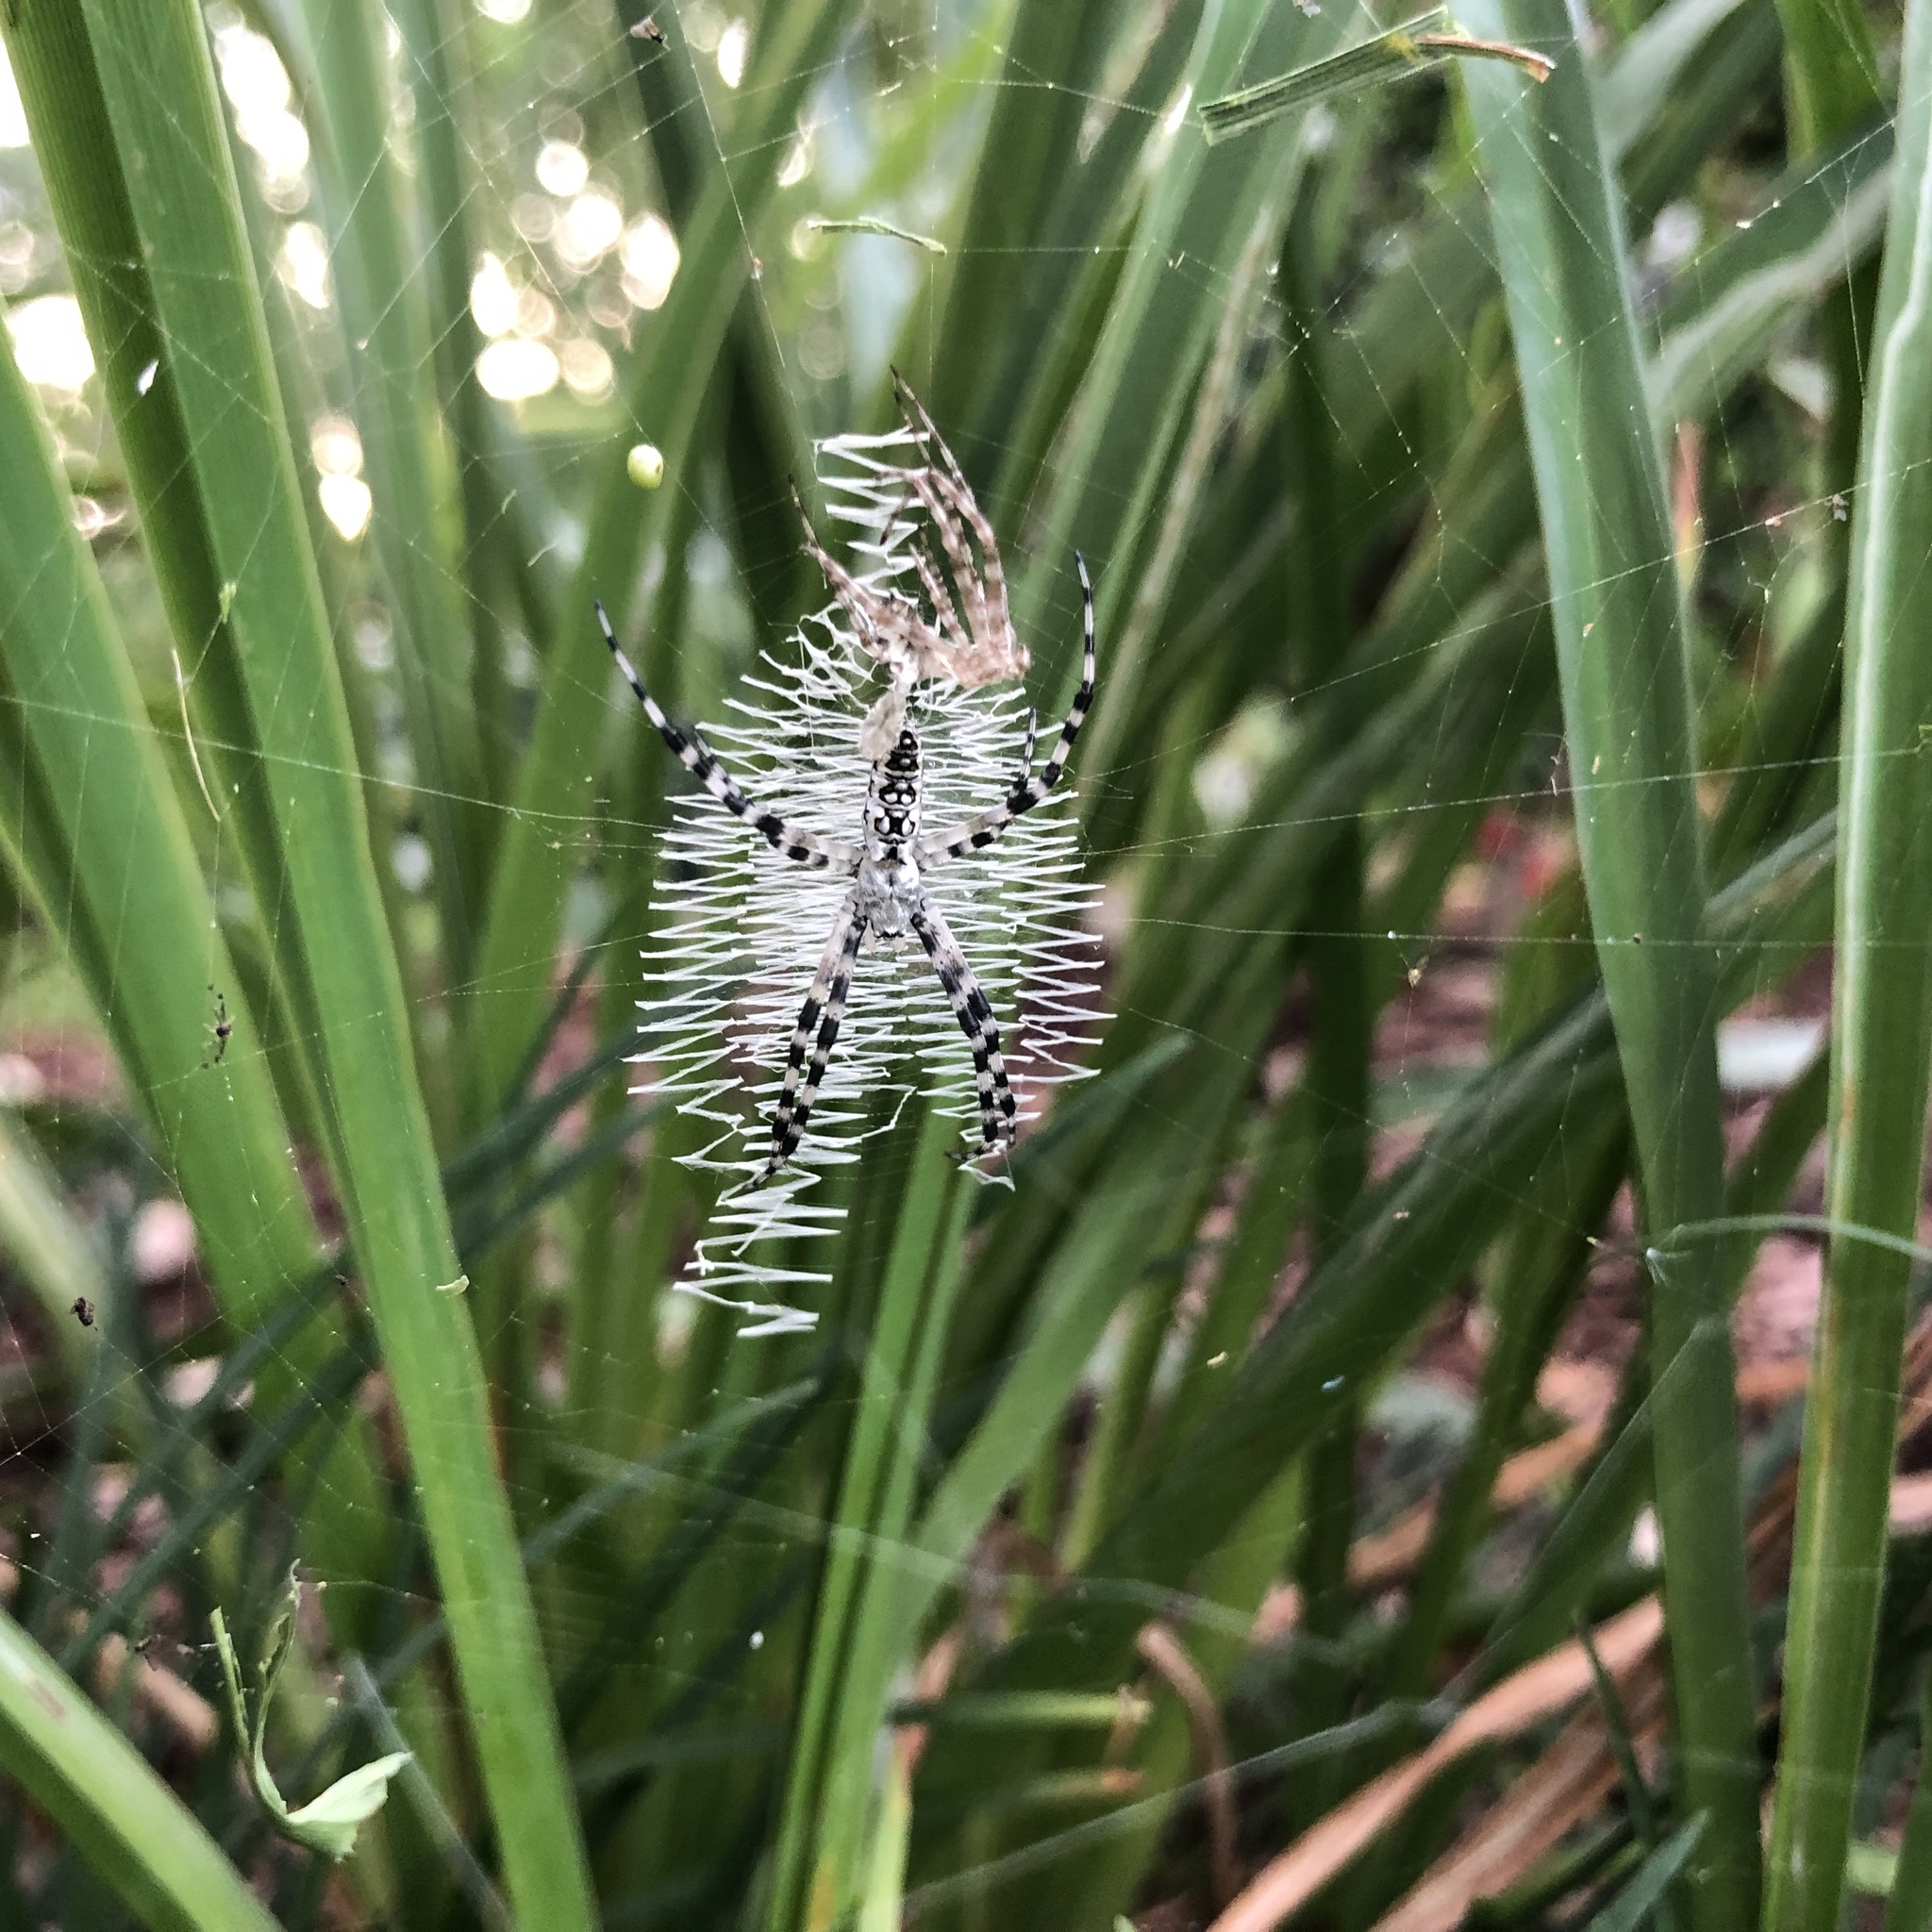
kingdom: Animalia
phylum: Arthropoda
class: Arachnida
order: Araneae
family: Araneidae
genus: Argiope
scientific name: Argiope aurantia
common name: Orb weavers
